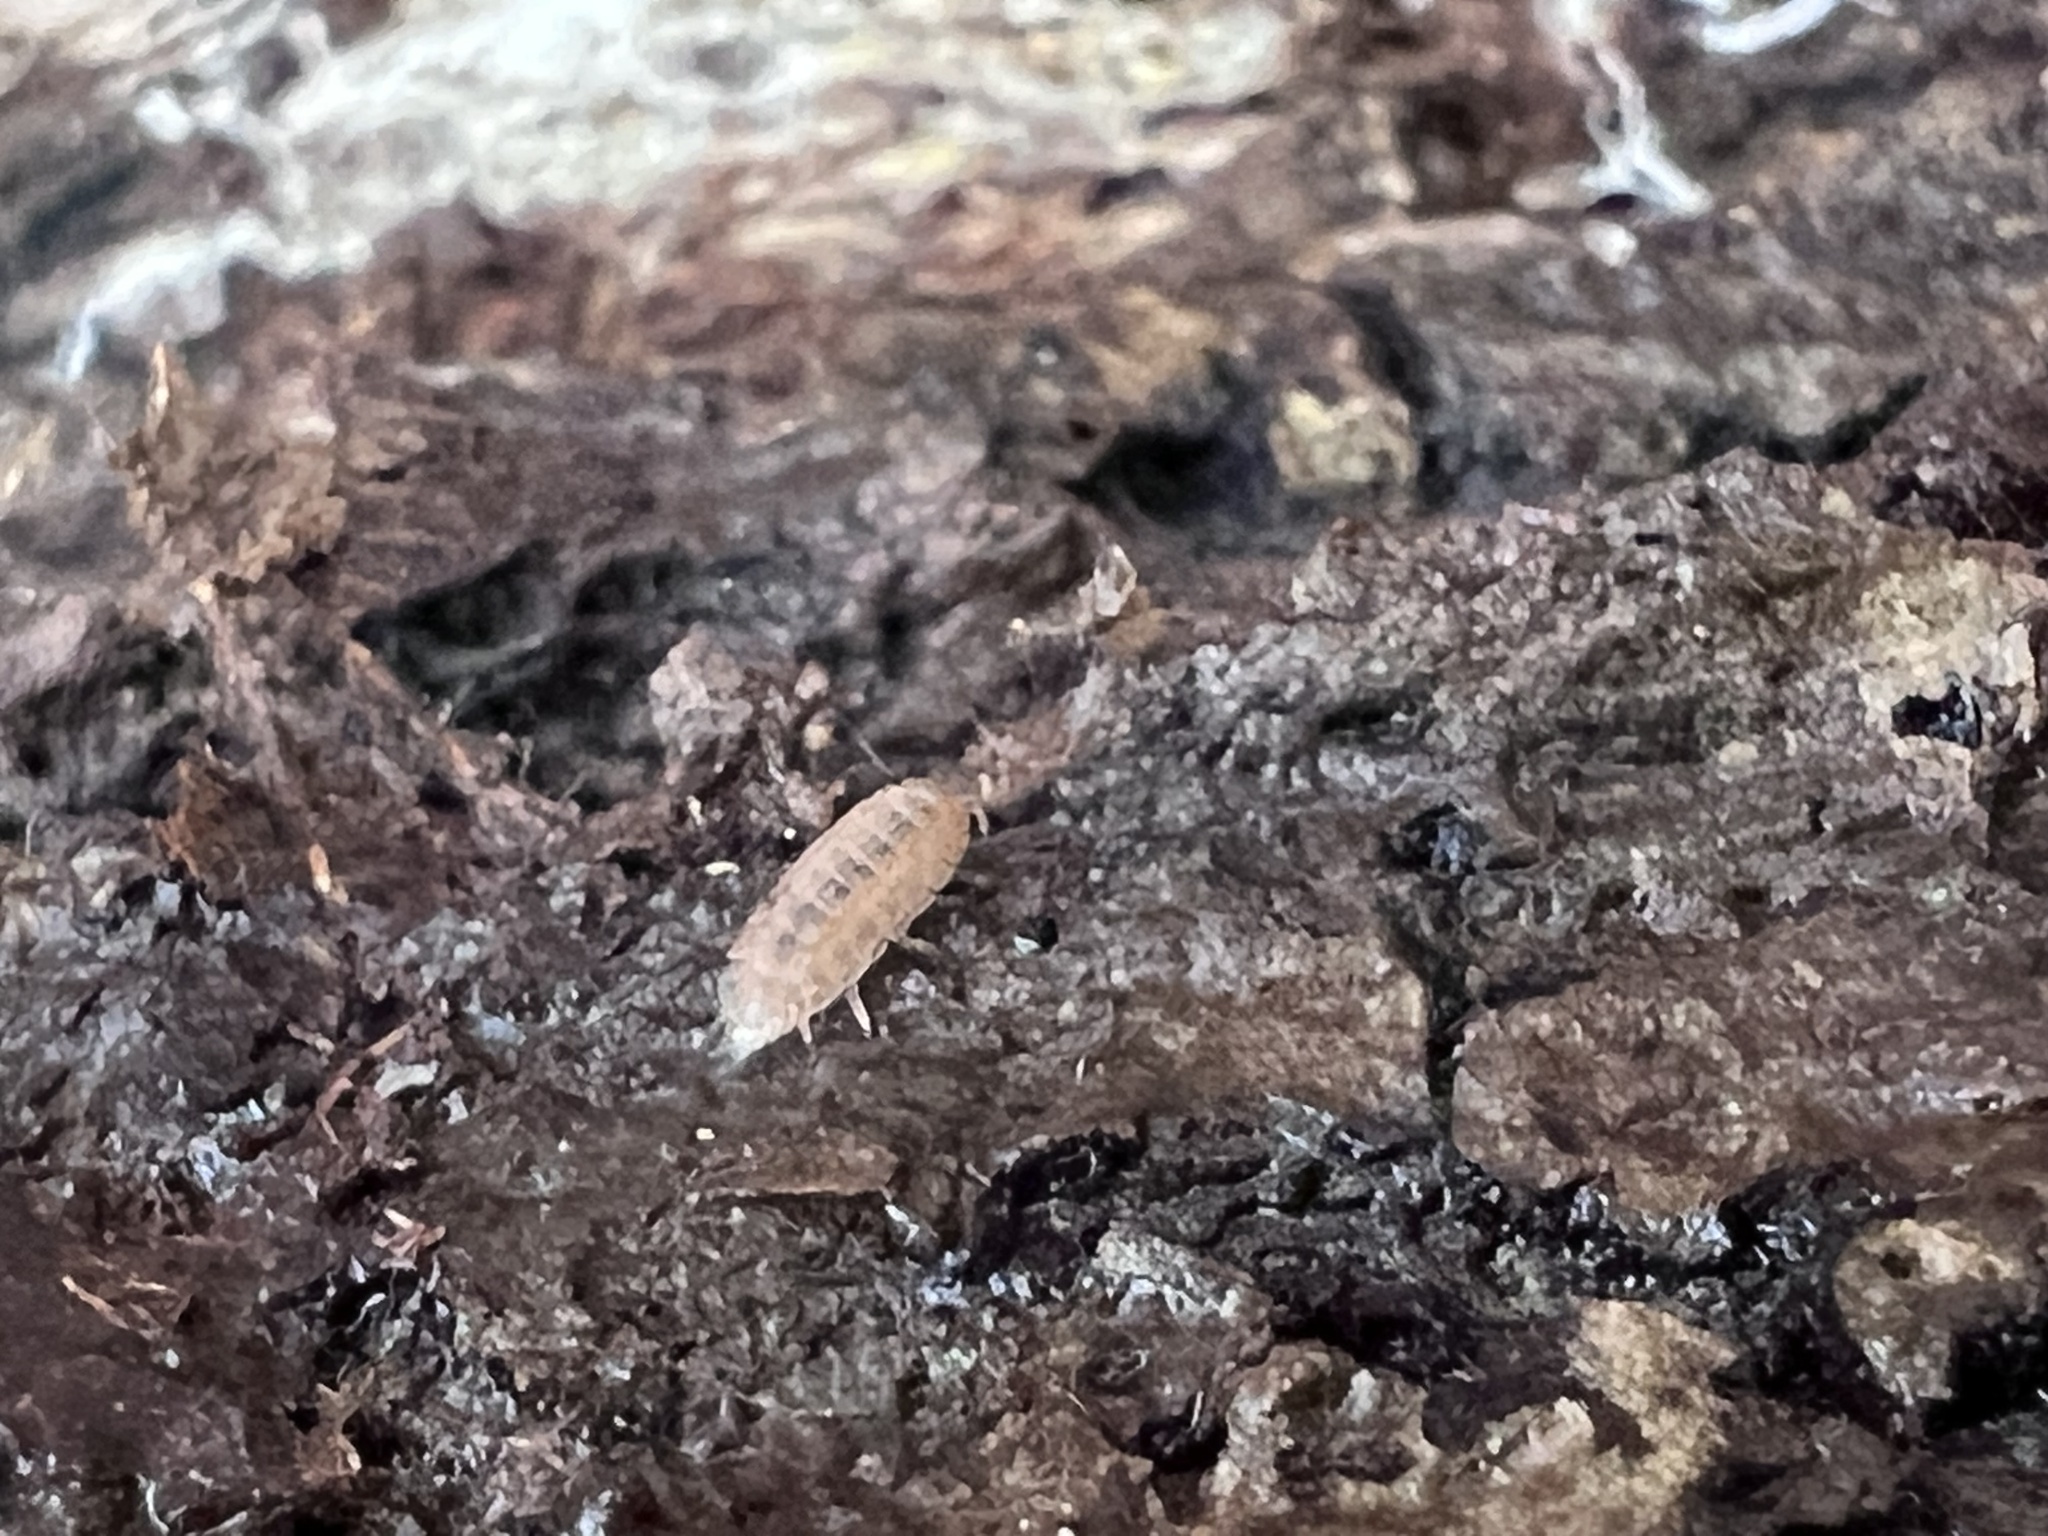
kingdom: Animalia
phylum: Arthropoda
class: Malacostraca
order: Isopoda
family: Trichoniscidae
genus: Haplophthalmus
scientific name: Haplophthalmus danicus
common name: Pillbug
